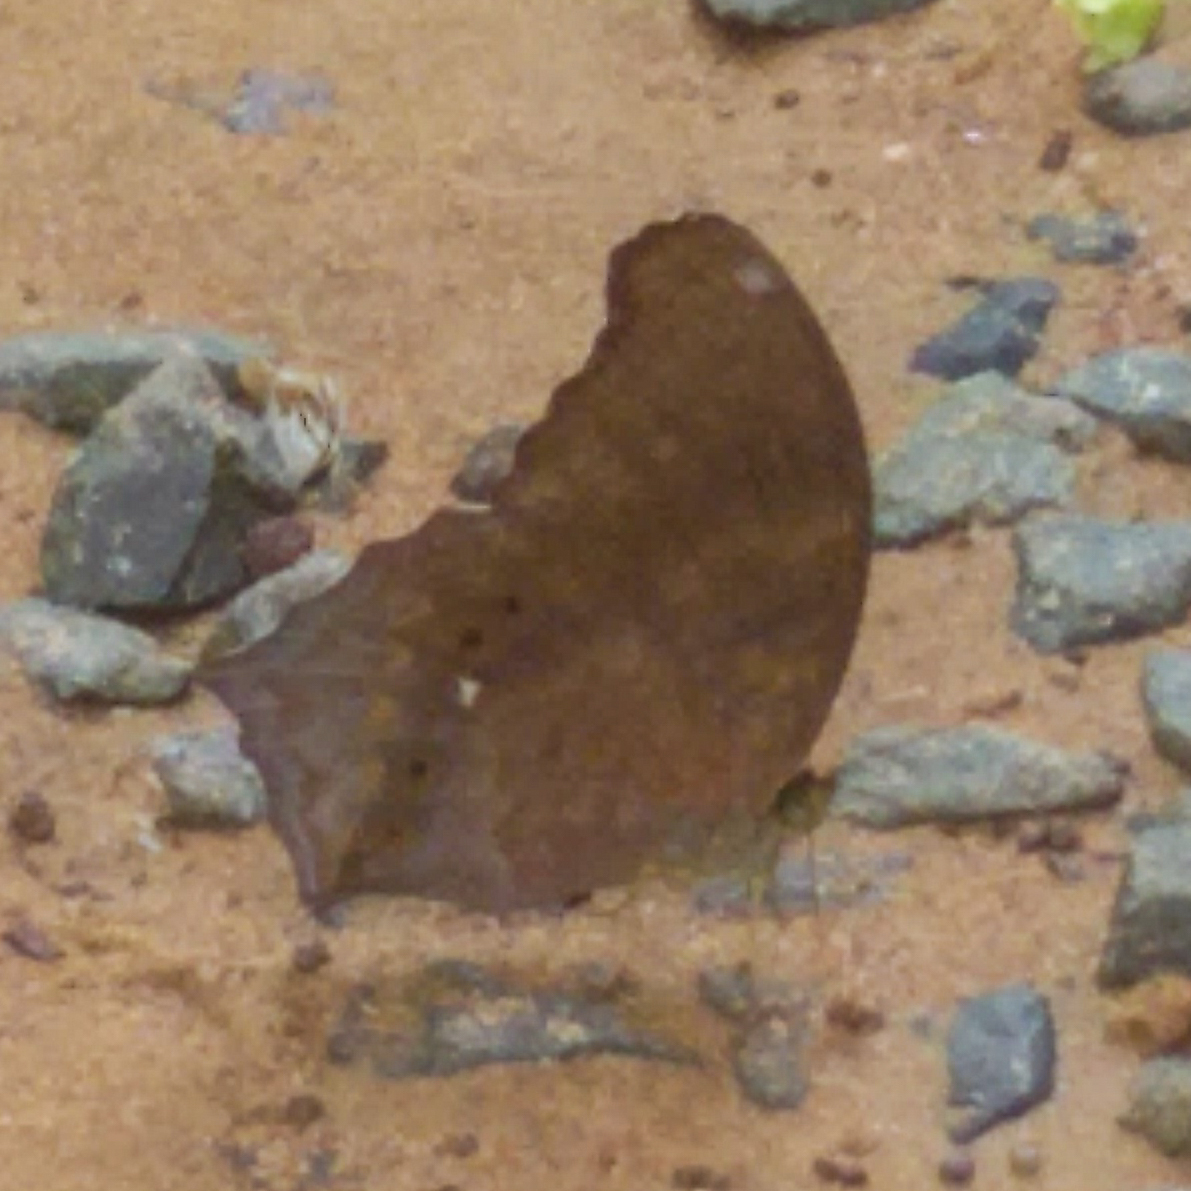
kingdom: Animalia
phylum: Arthropoda
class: Insecta
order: Lepidoptera
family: Nymphalidae
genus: Terinos
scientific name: Terinos clarissa
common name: Malayan assyrian
